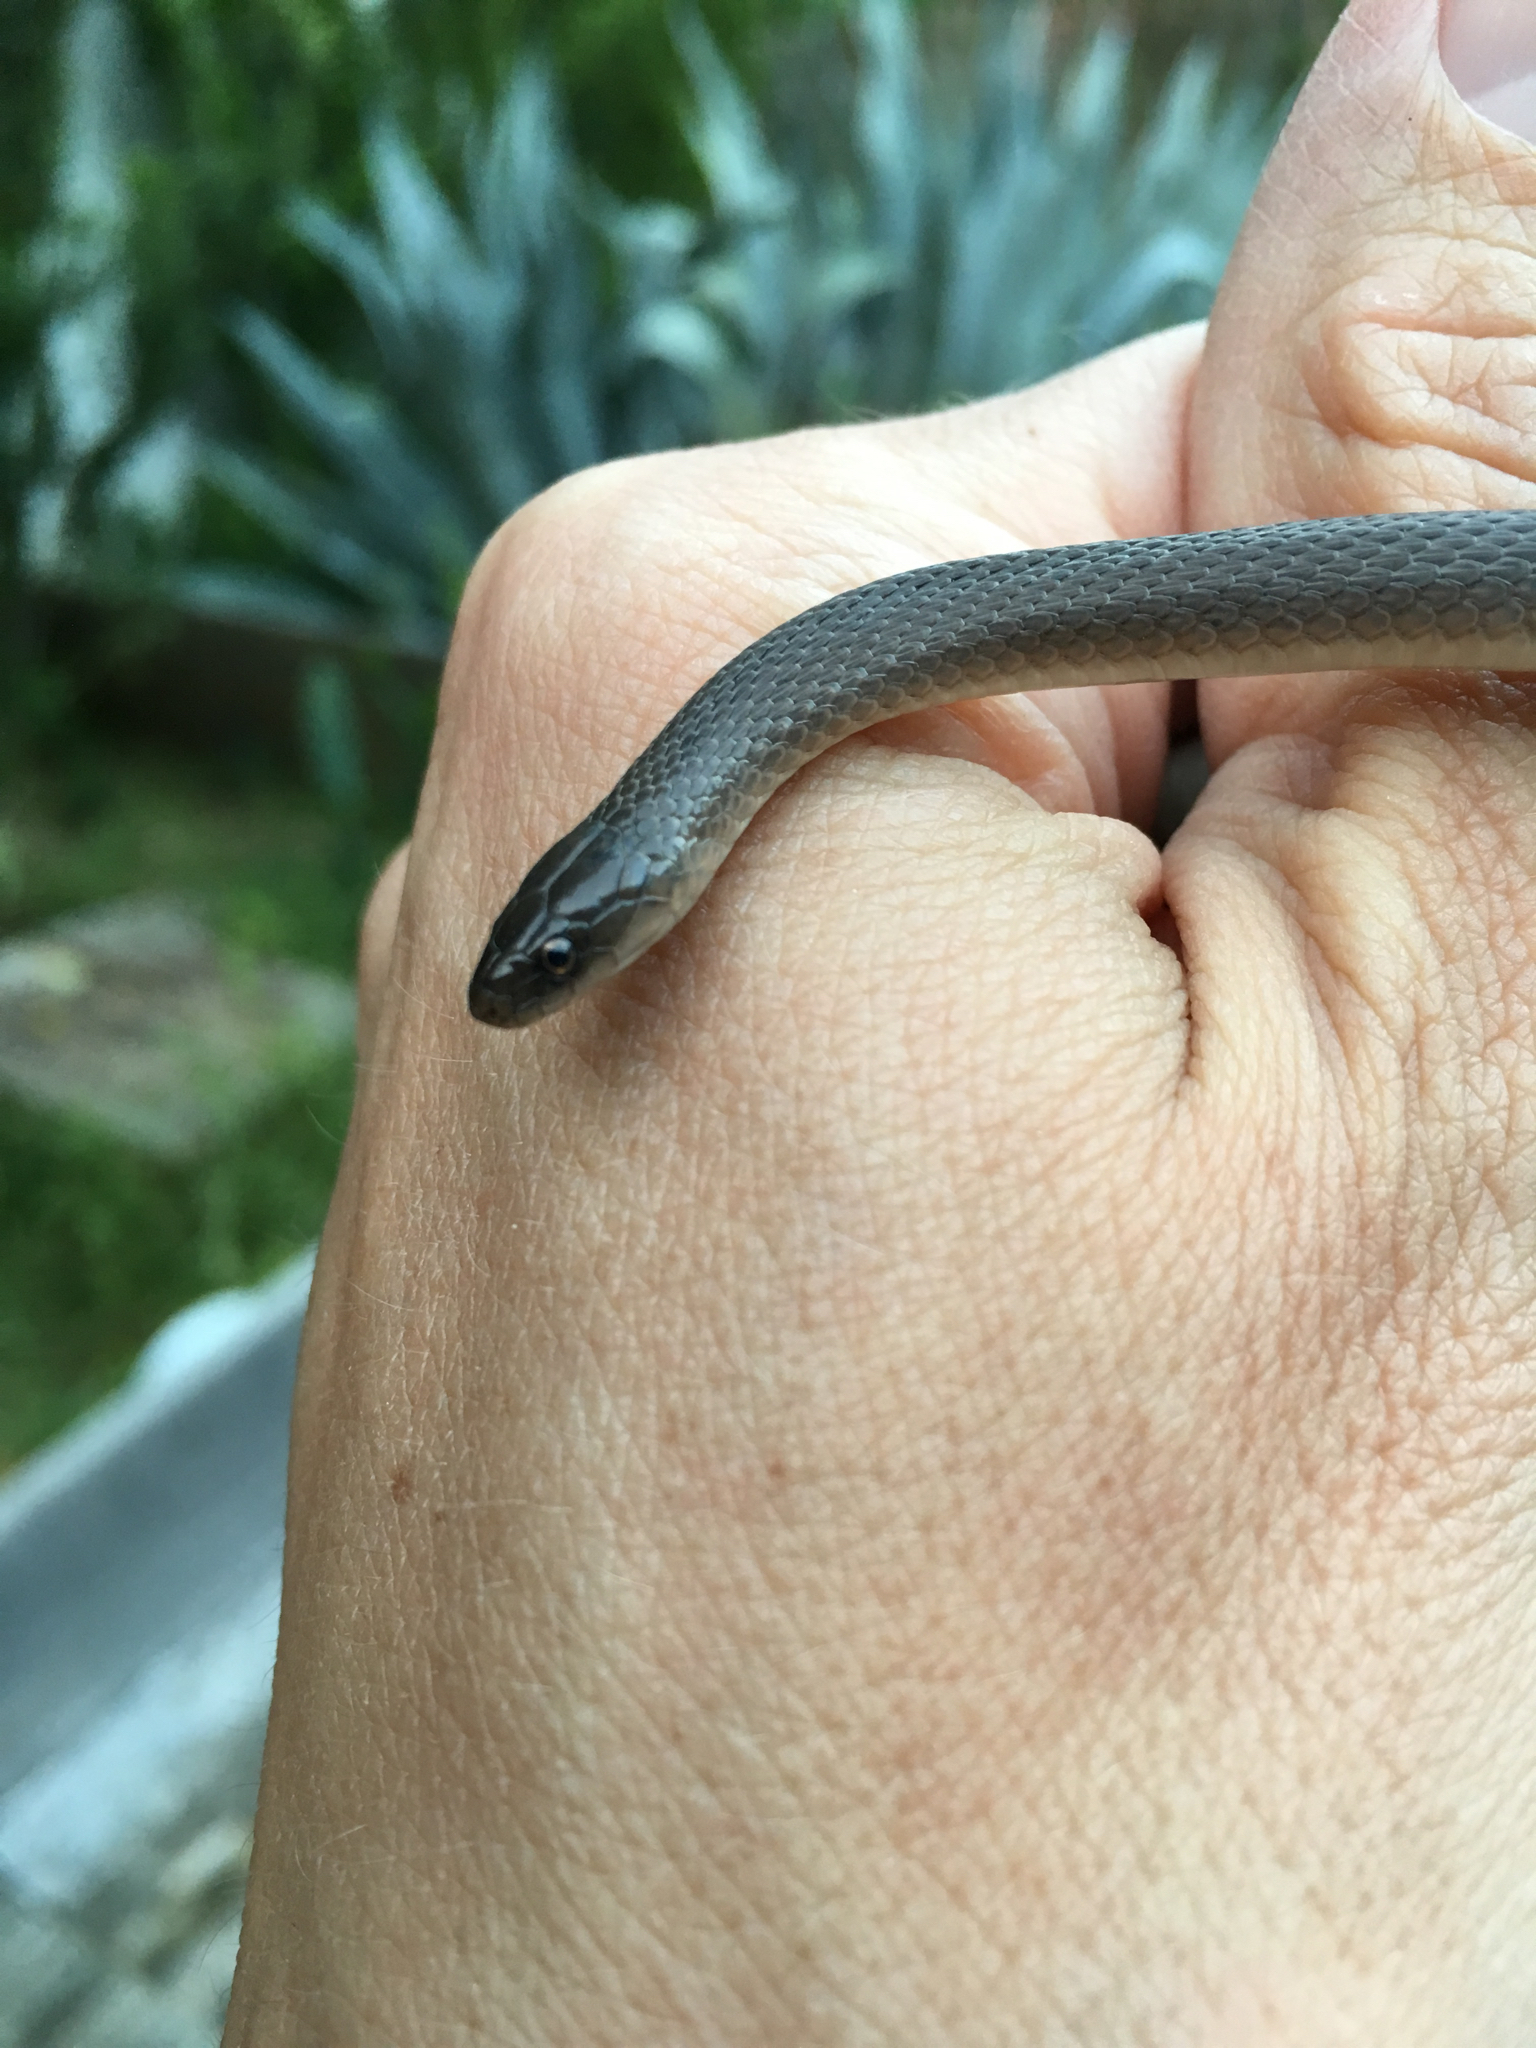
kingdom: Animalia
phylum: Chordata
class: Squamata
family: Colubridae
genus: Haldea
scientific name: Haldea striatula
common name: Rough earth snake
